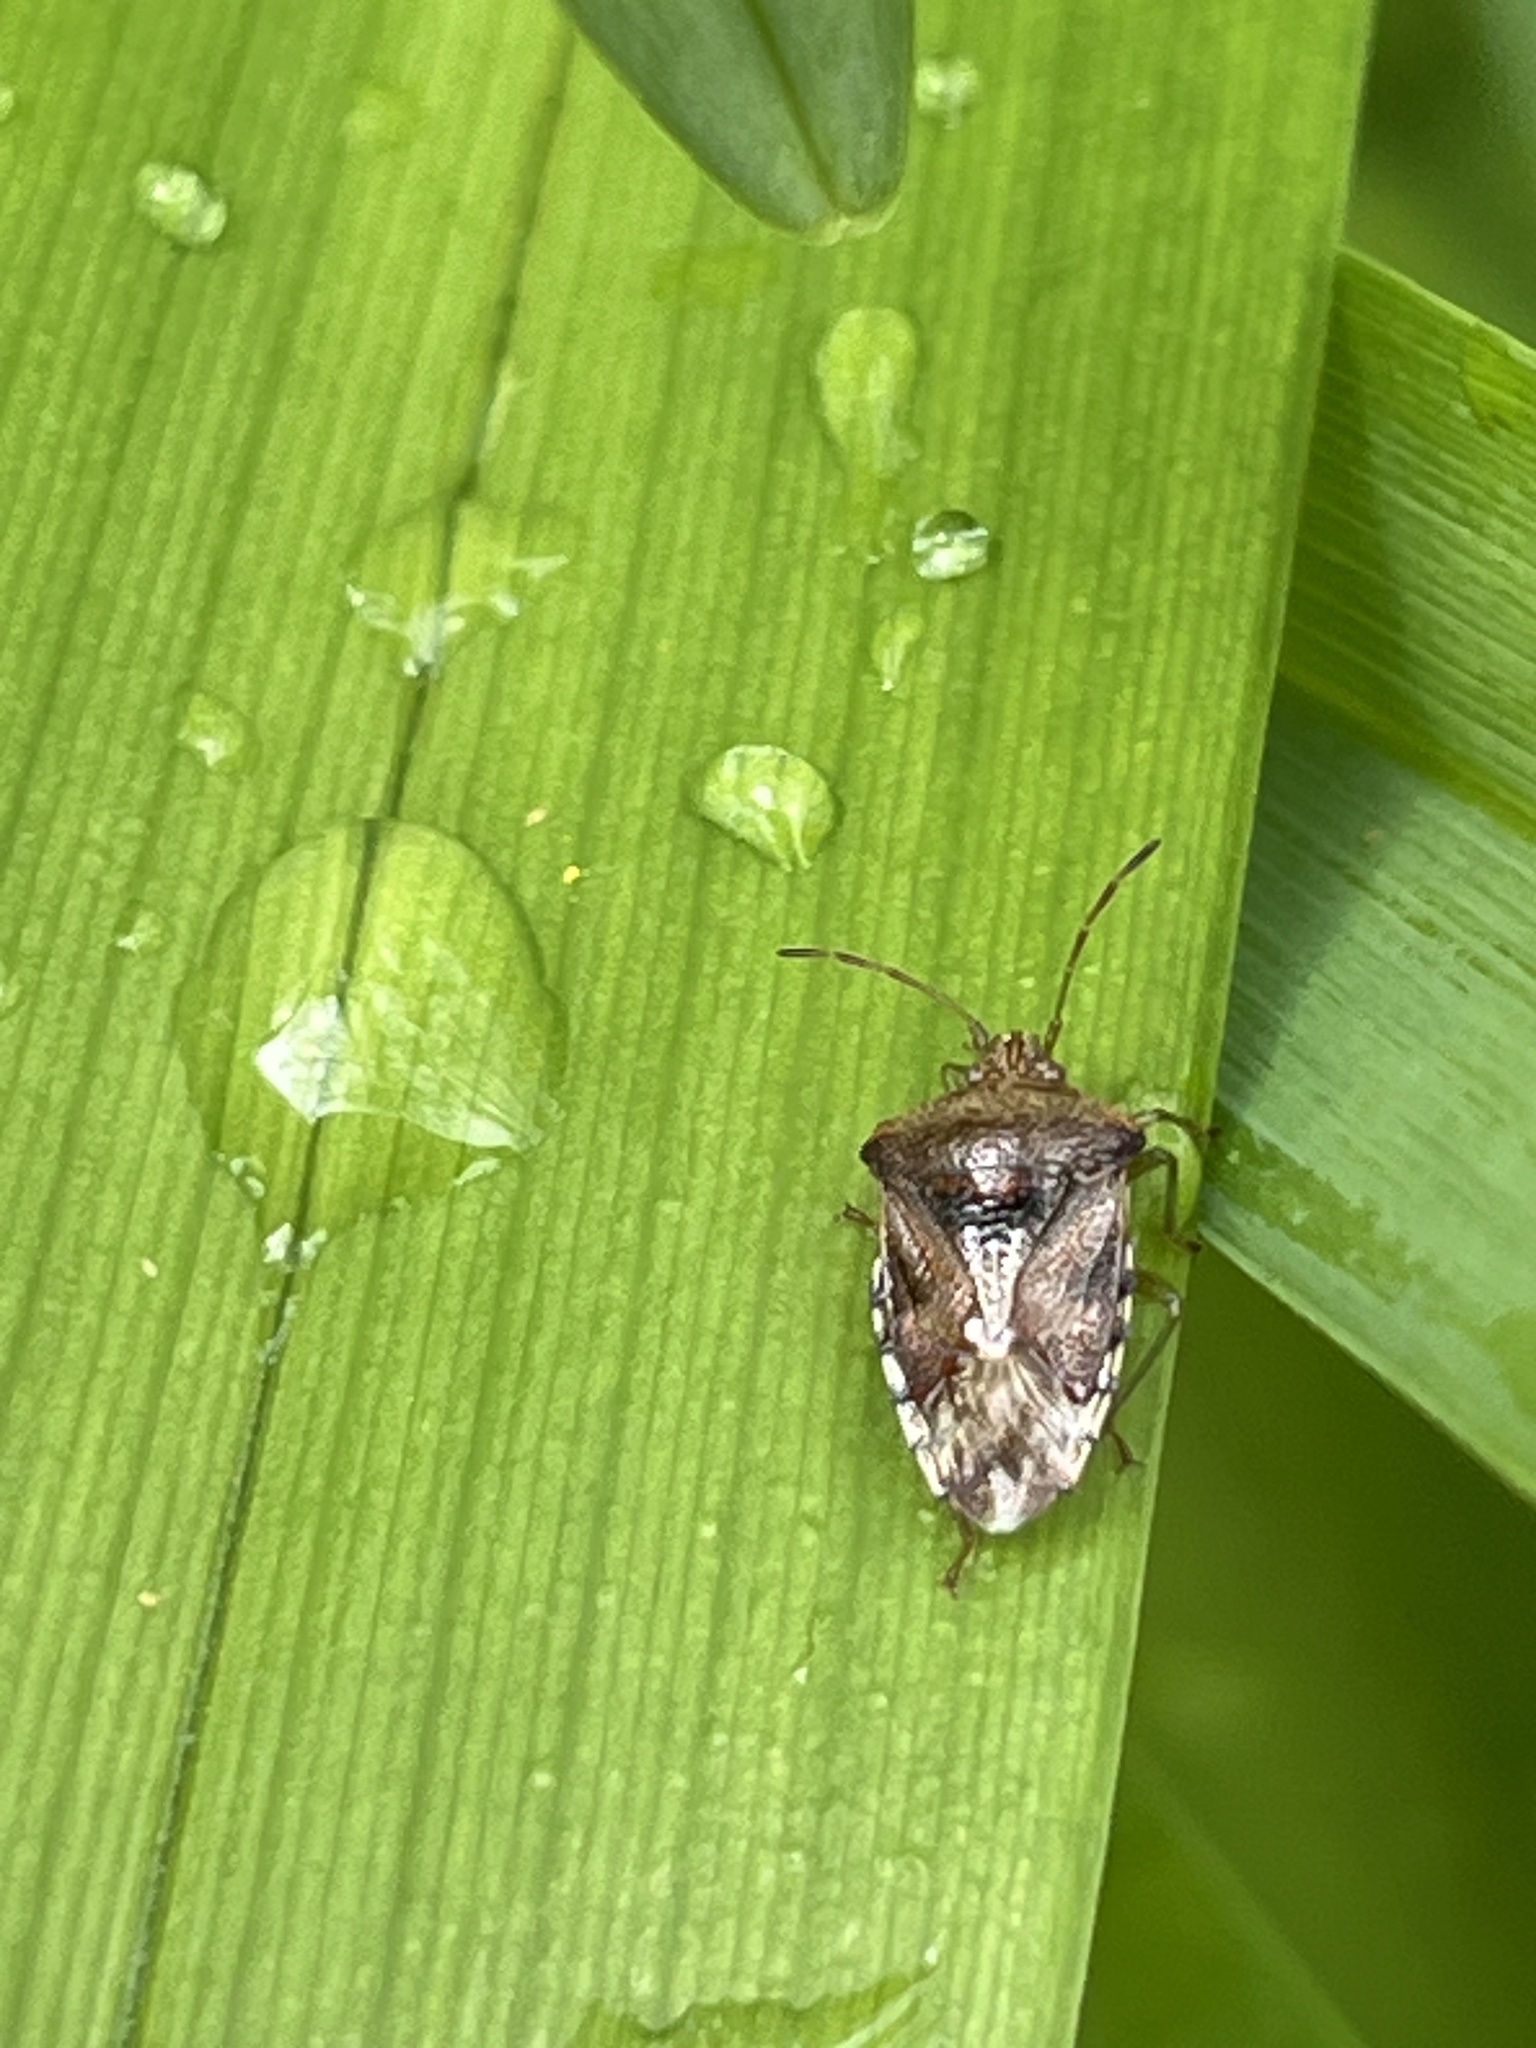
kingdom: Animalia
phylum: Arthropoda
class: Insecta
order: Hemiptera
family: Acanthosomatidae
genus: Elasmucha
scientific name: Elasmucha grisea
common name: Parent bug
